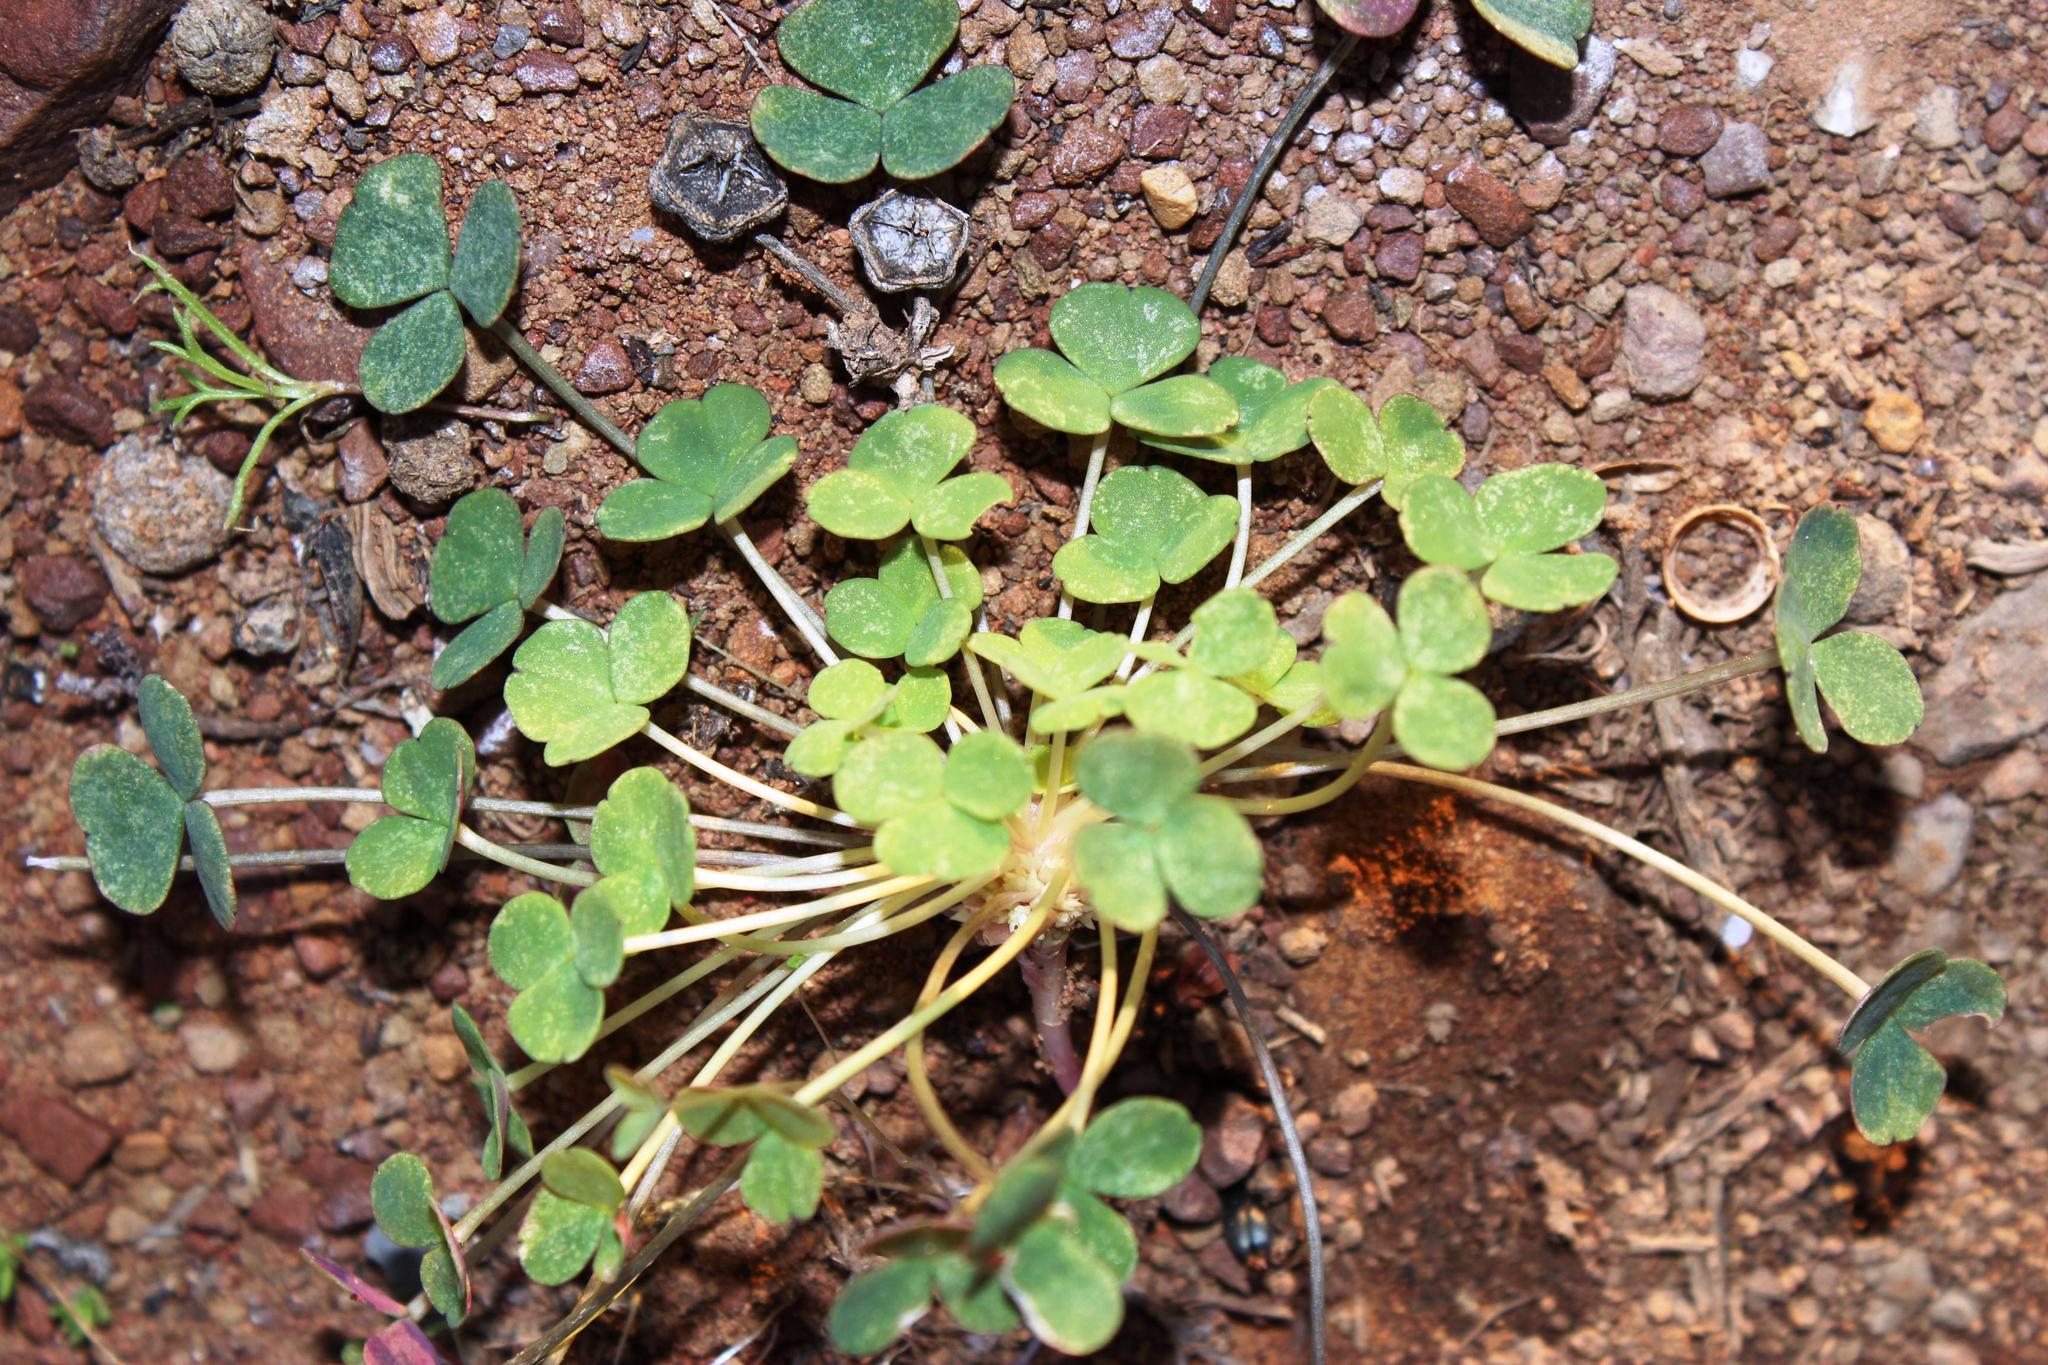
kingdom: Plantae
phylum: Tracheophyta
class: Magnoliopsida
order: Oxalidales
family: Oxalidaceae
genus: Oxalis
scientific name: Oxalis pocockiae
